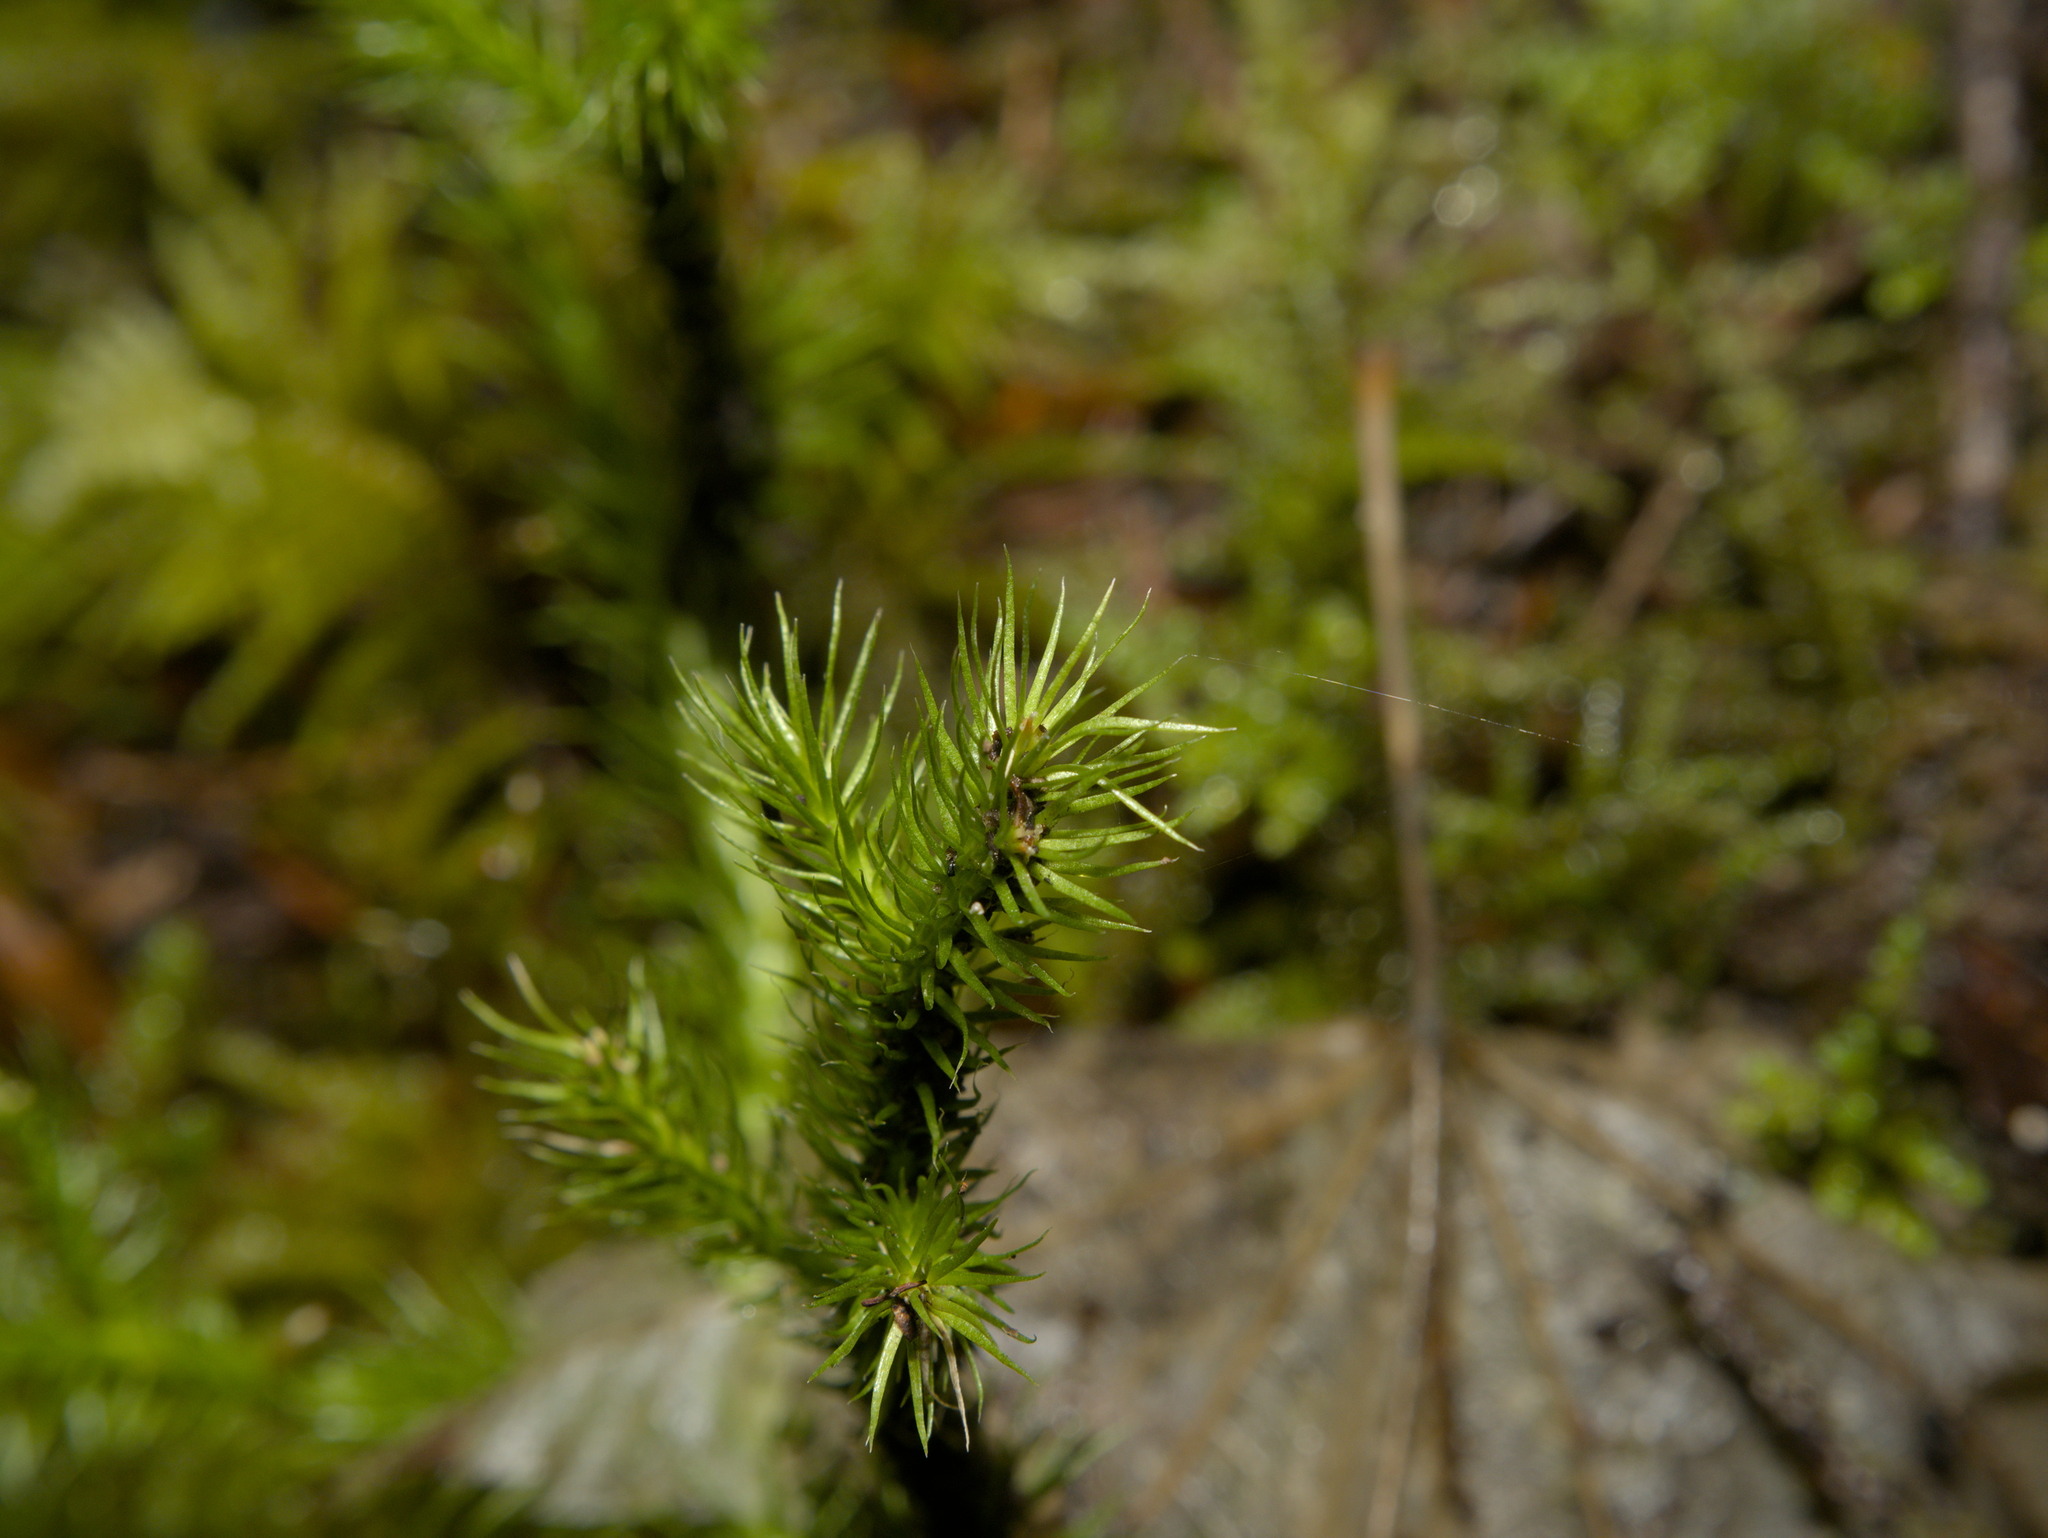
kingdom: Plantae
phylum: Tracheophyta
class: Lycopodiopsida
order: Lycopodiales
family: Lycopodiaceae
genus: Lycopodium
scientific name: Lycopodium clavatum
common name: Stag's-horn clubmoss
